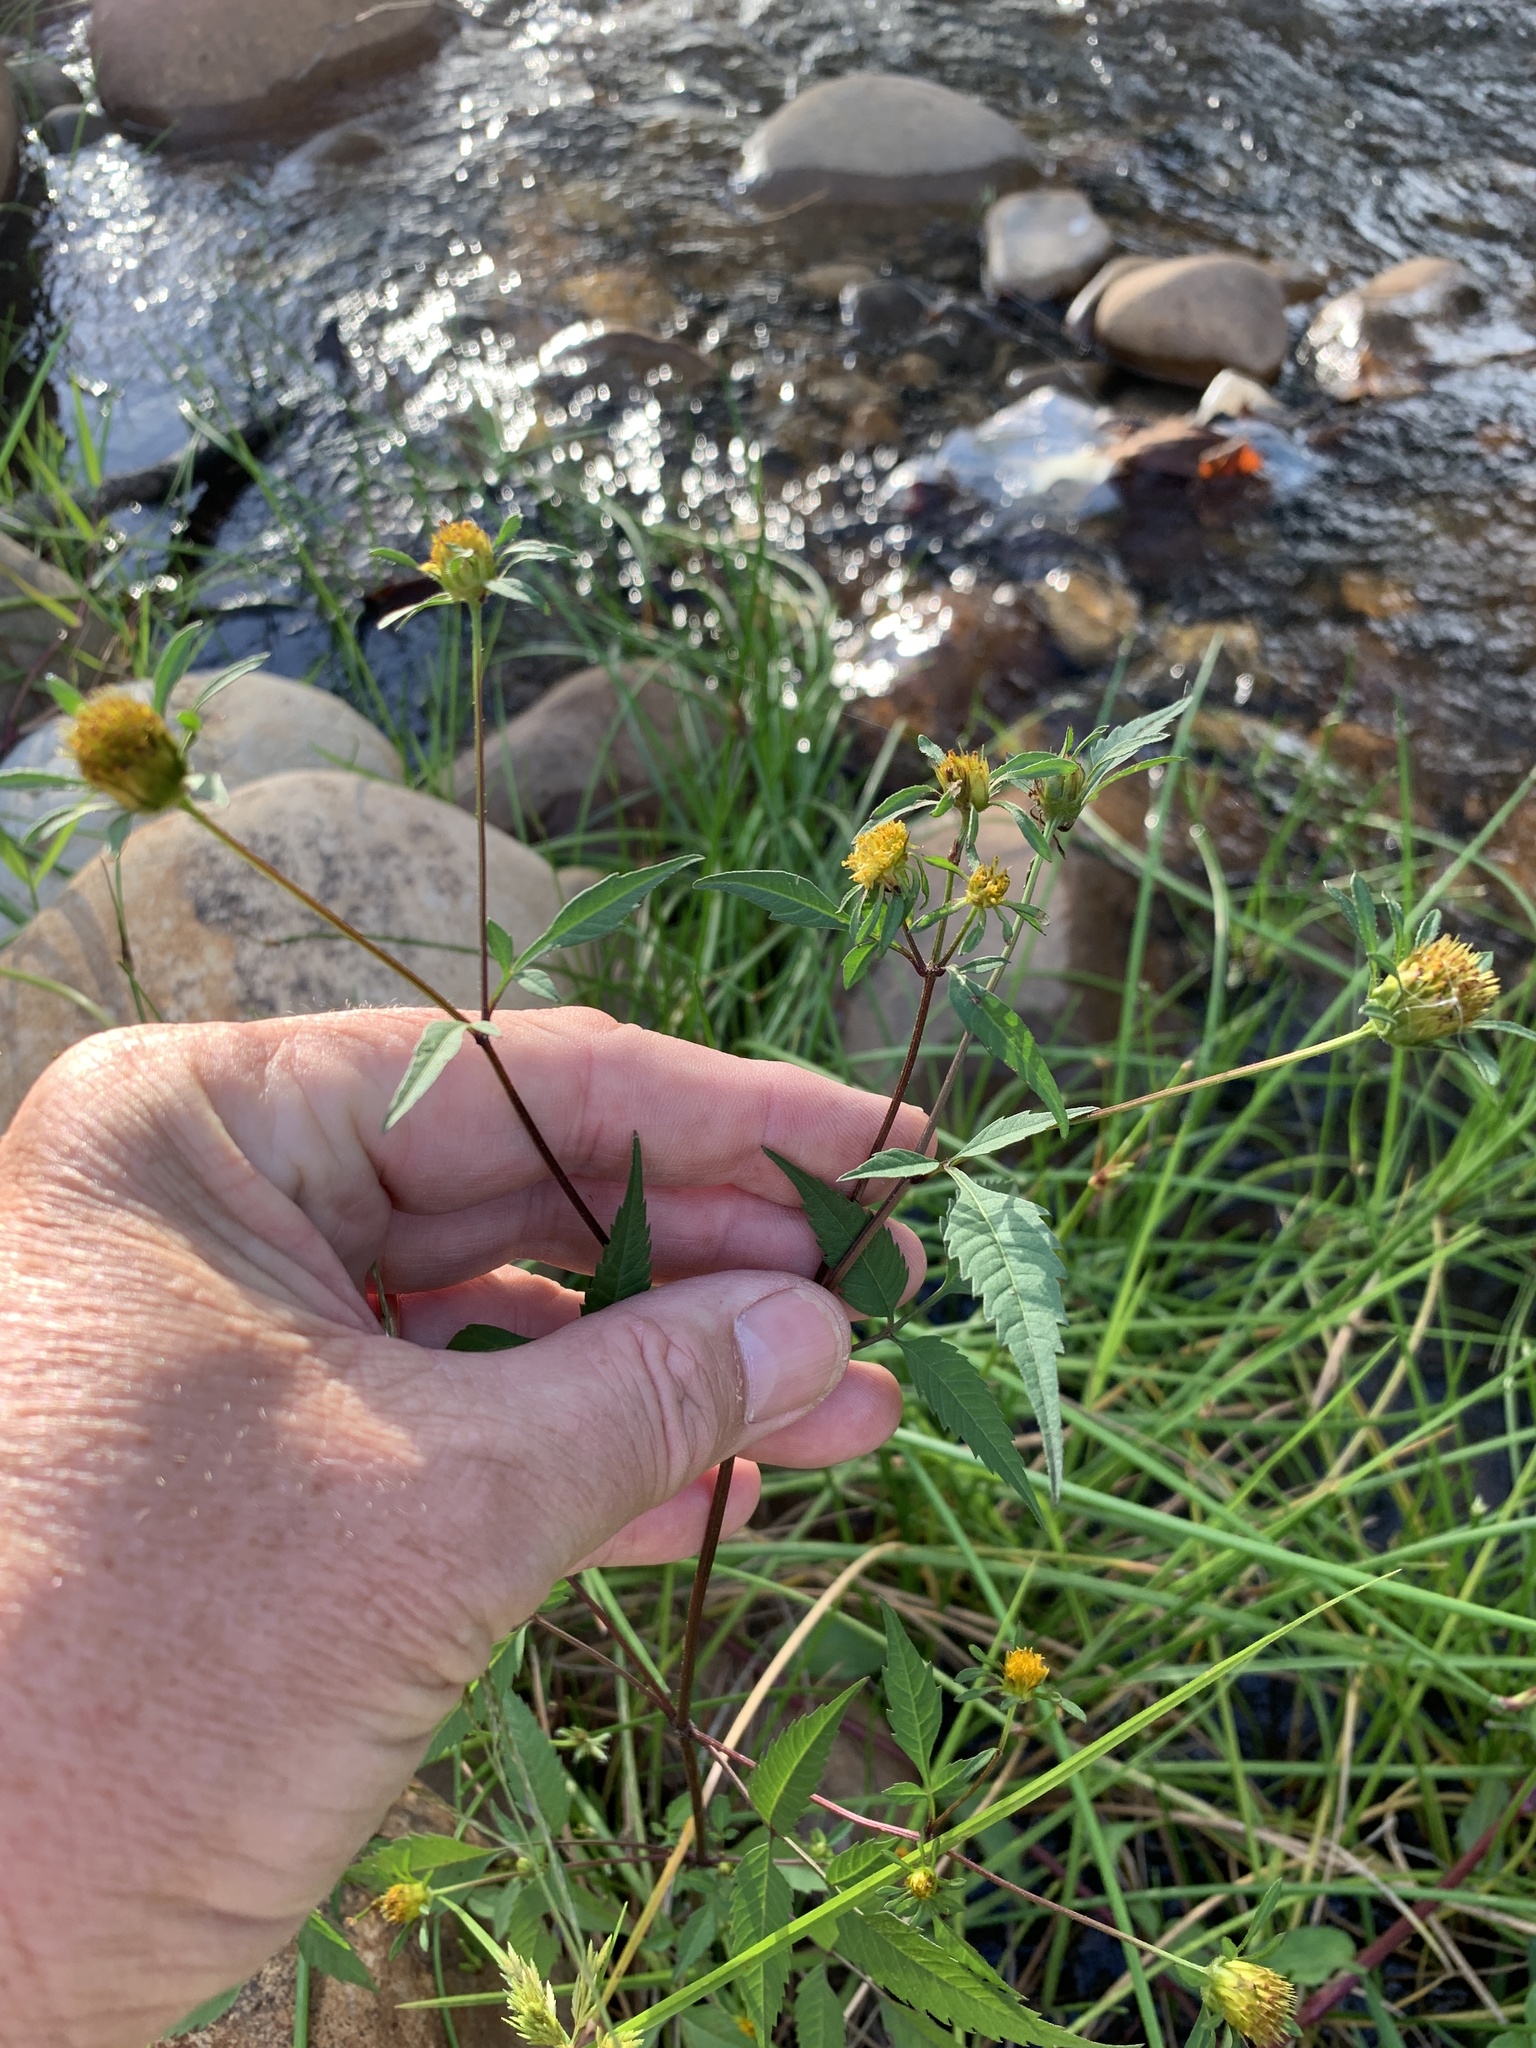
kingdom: Plantae
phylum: Tracheophyta
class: Magnoliopsida
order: Asterales
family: Asteraceae
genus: Bidens
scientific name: Bidens frondosa
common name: Beggarticks
